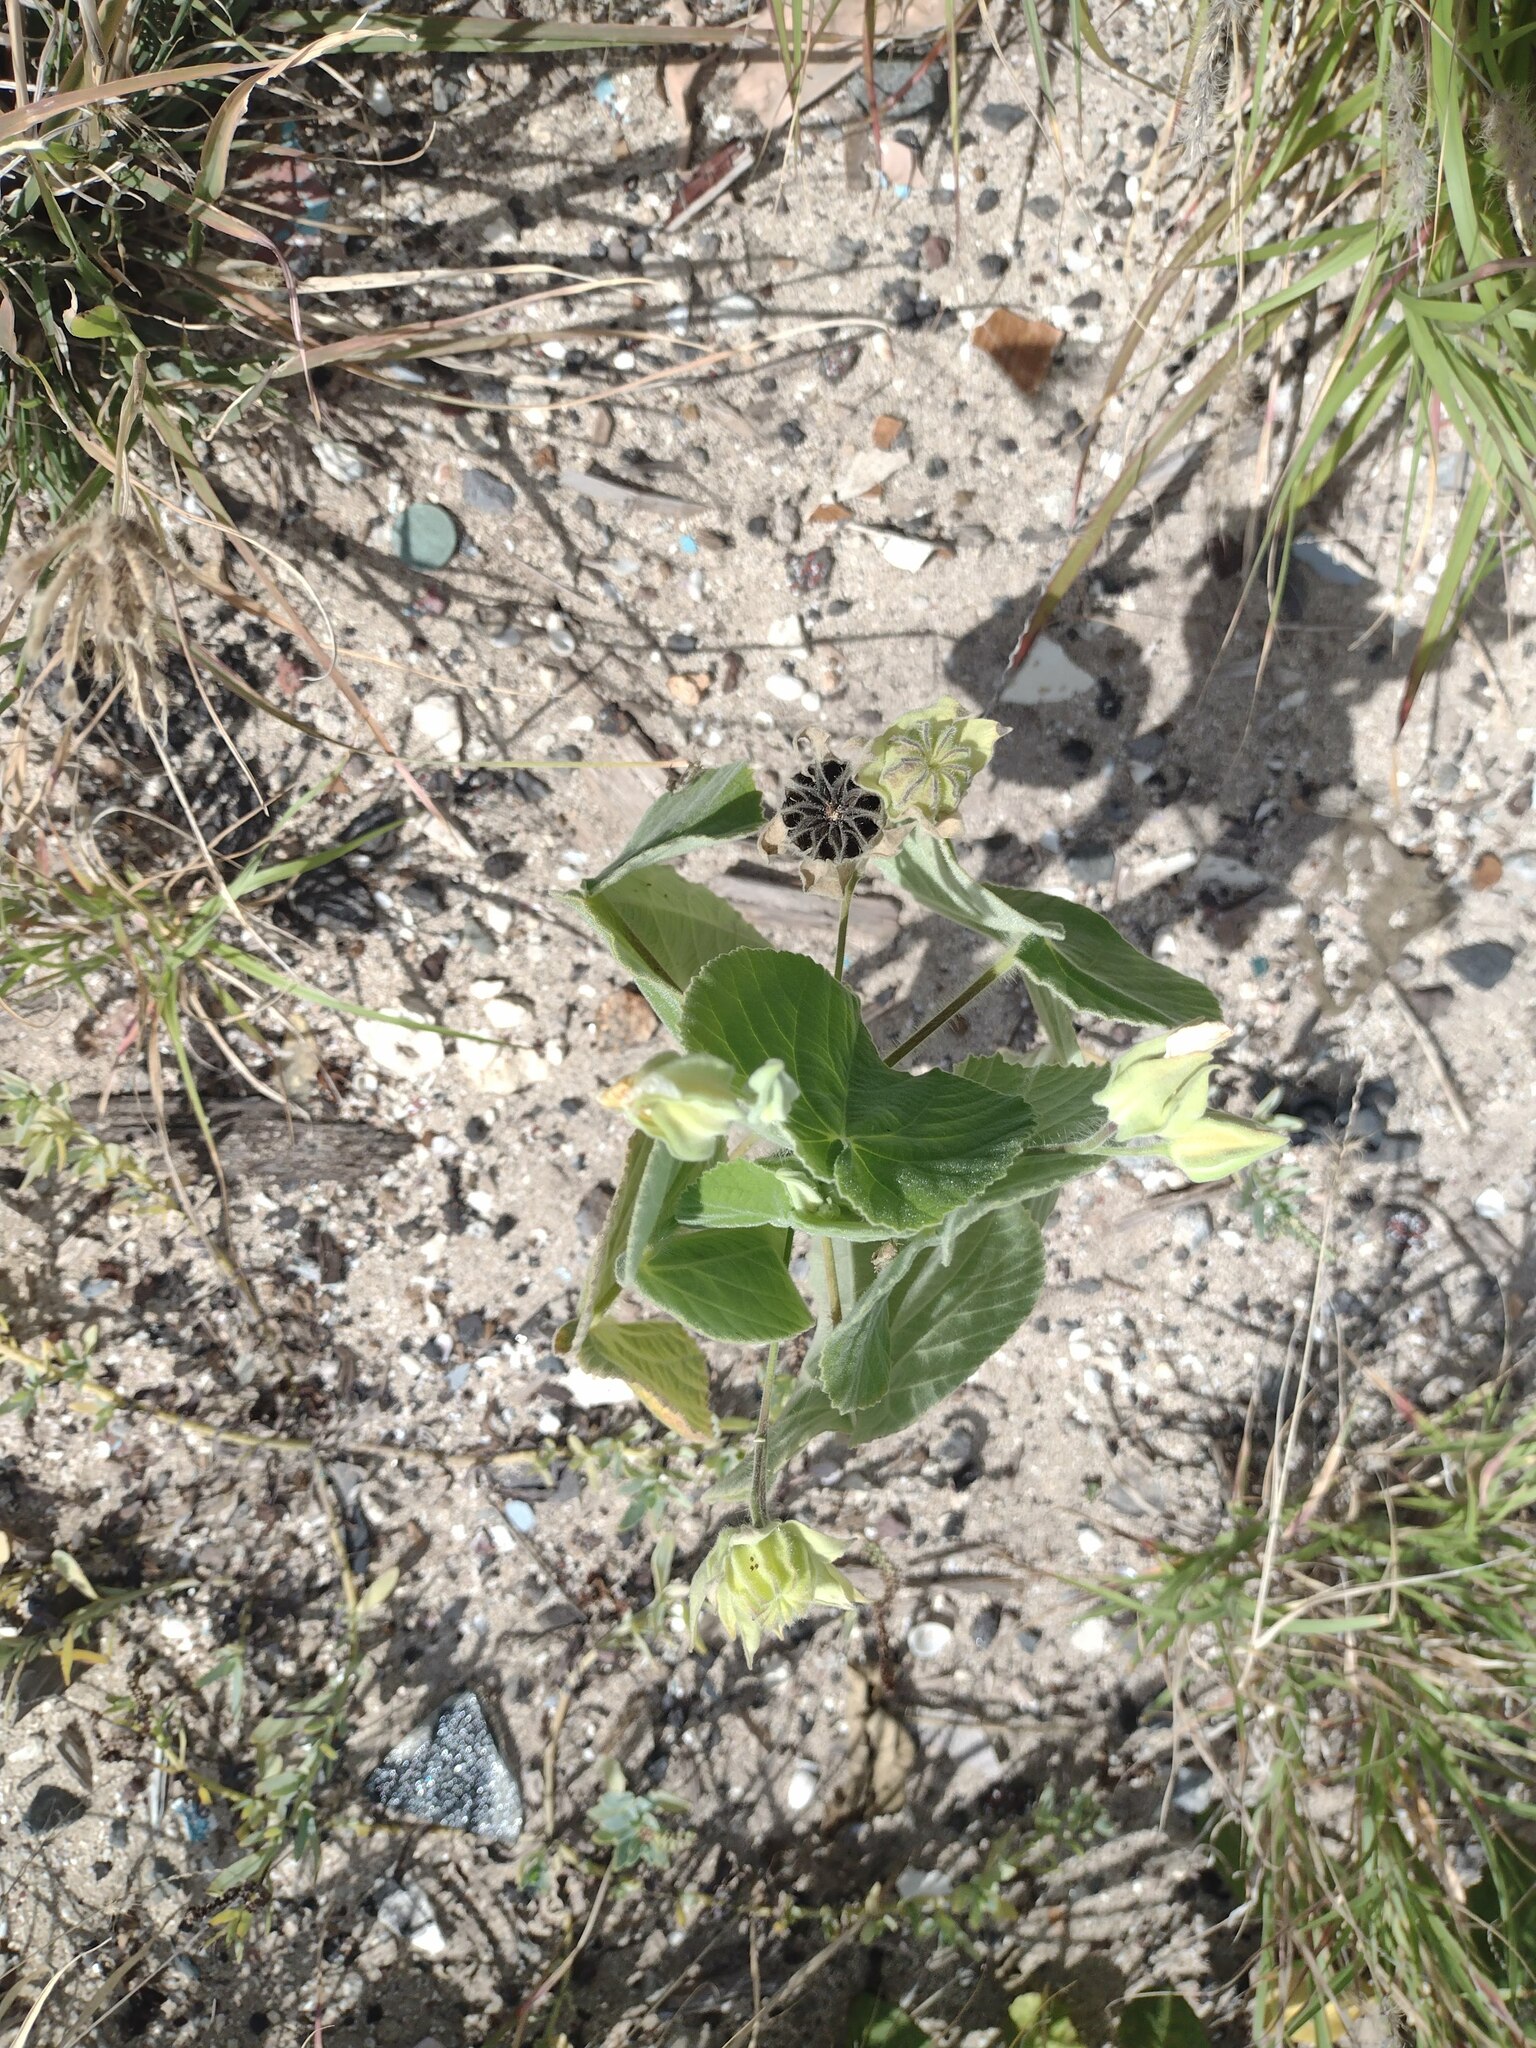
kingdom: Plantae
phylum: Tracheophyta
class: Magnoliopsida
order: Malvales
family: Malvaceae
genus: Abutilon
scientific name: Abutilon grandifolium
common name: Hairy abutilon
